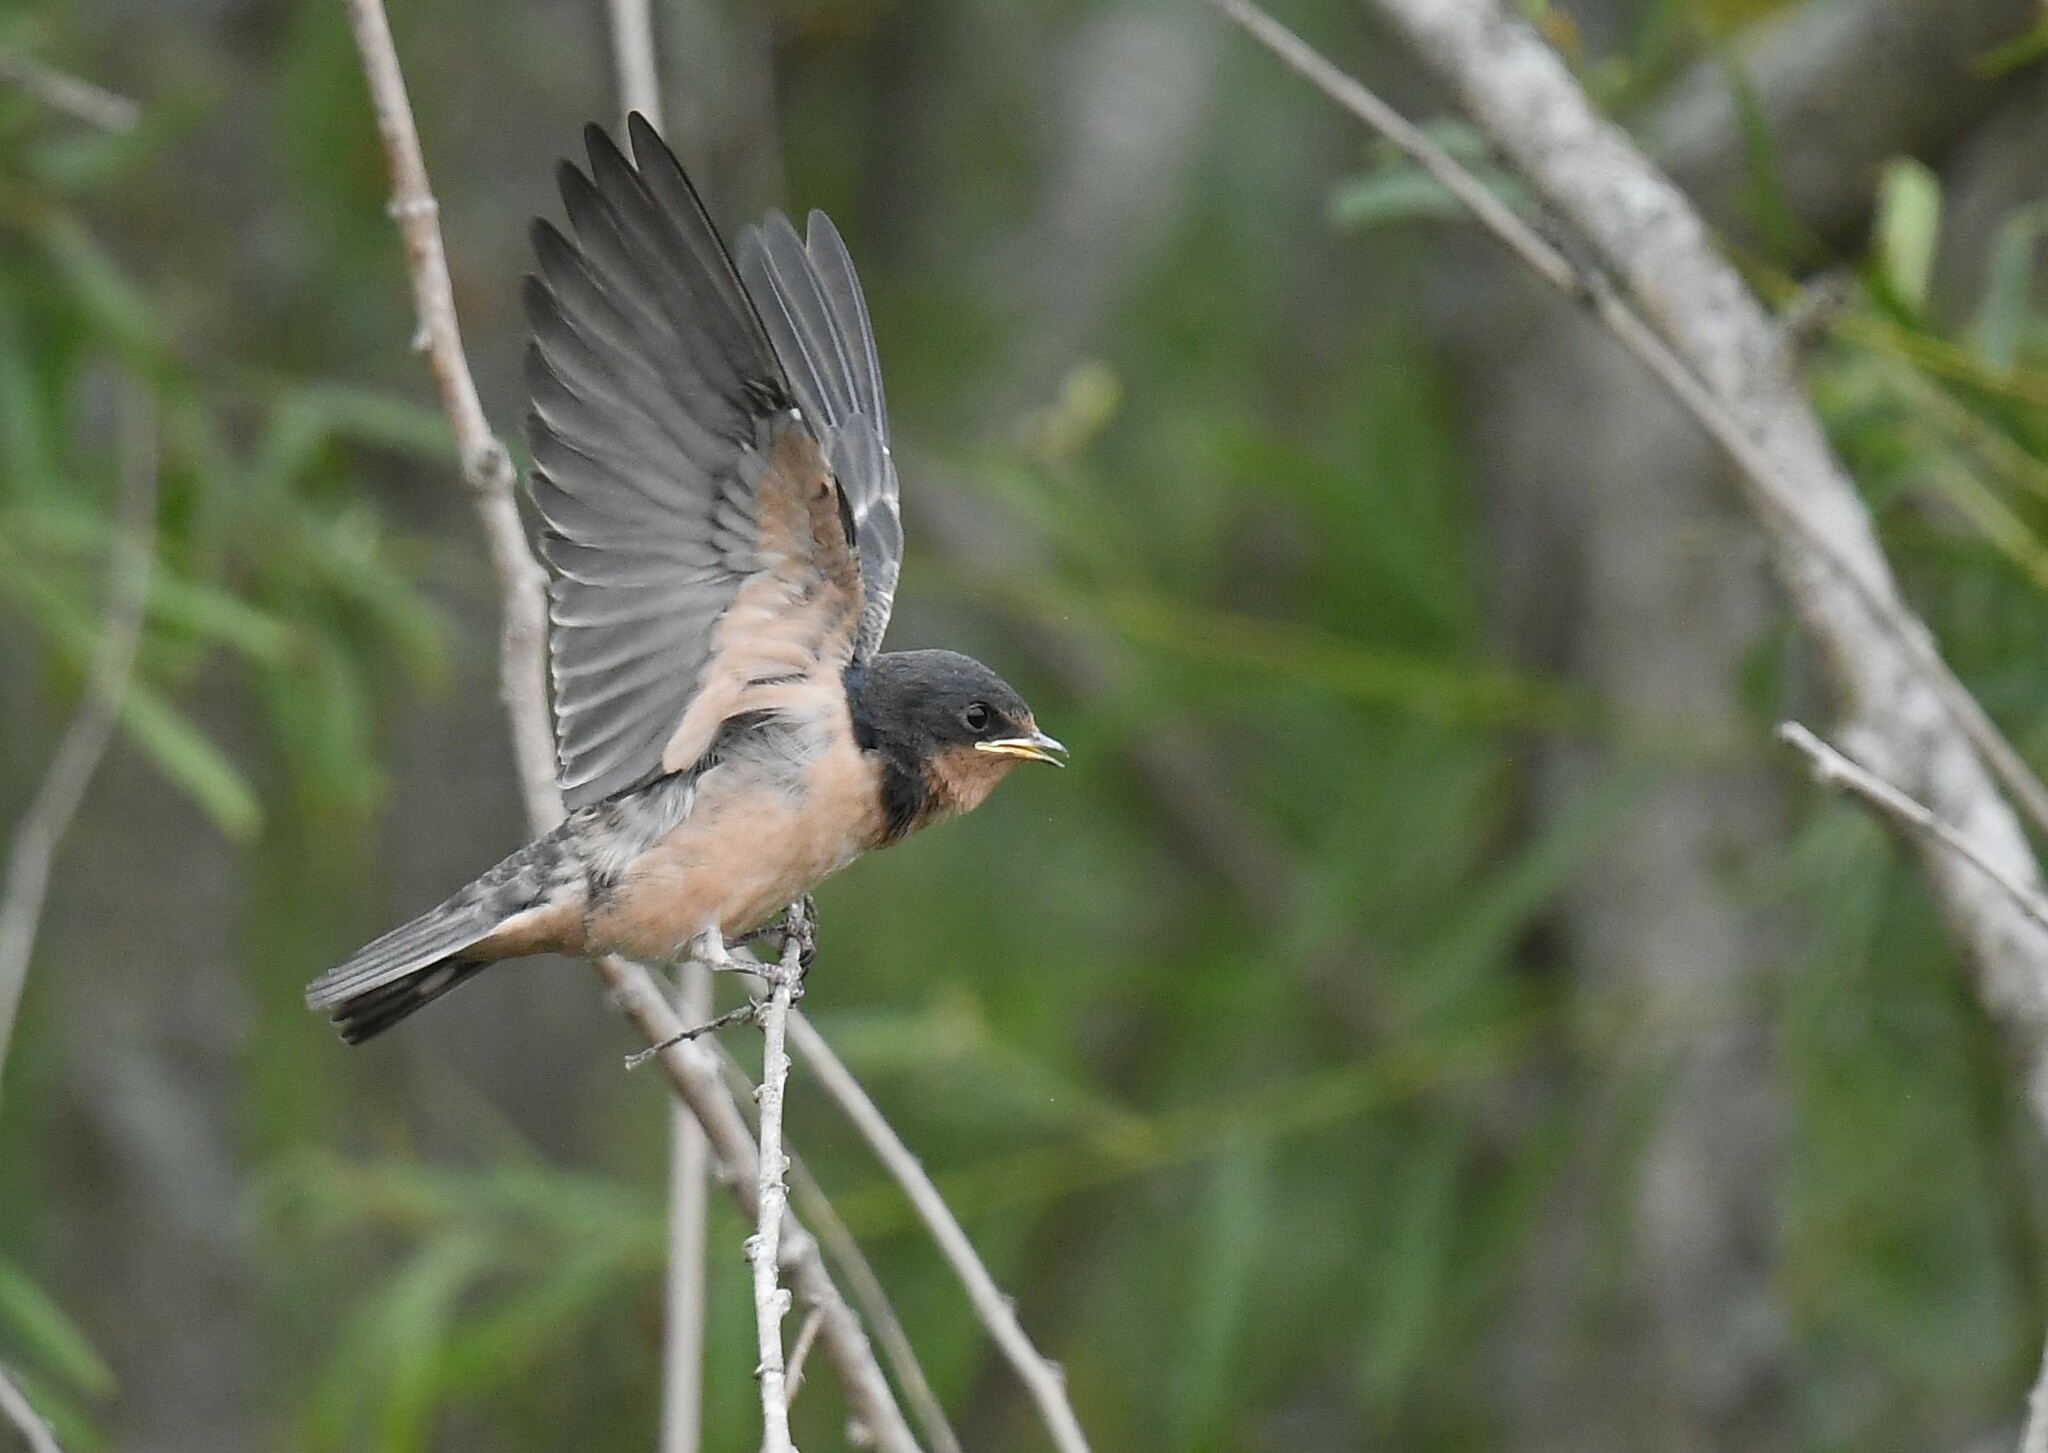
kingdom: Animalia
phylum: Chordata
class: Aves
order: Passeriformes
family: Hirundinidae
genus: Hirundo
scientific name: Hirundo rustica
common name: Barn swallow
